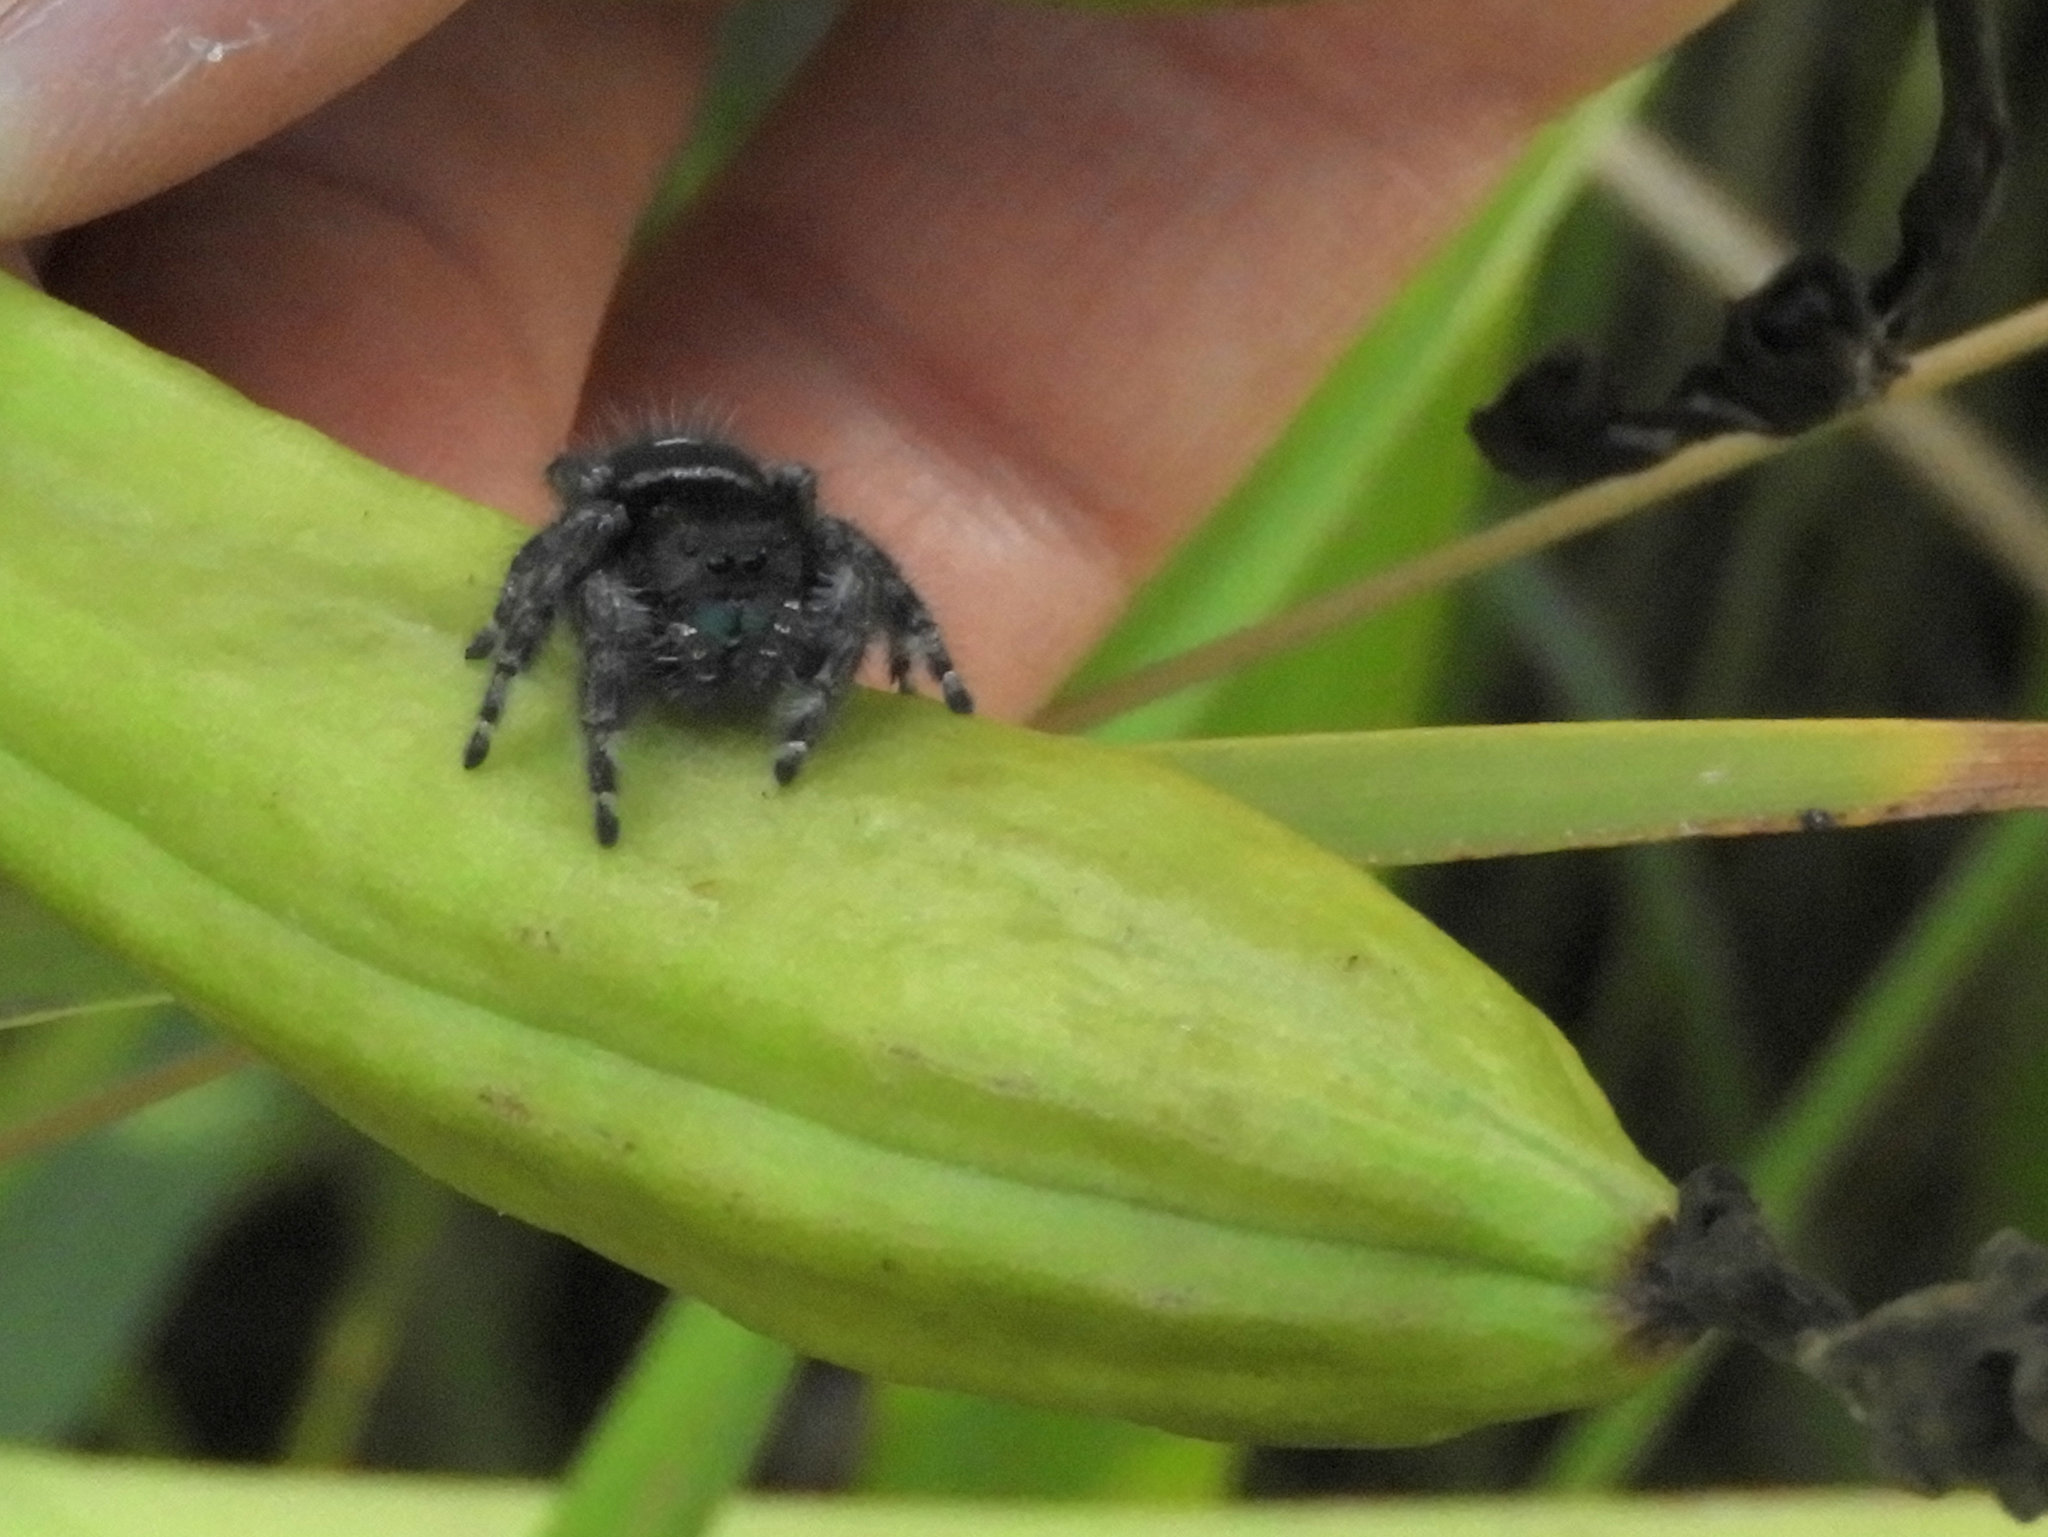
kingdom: Animalia
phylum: Arthropoda
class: Arachnida
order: Araneae
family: Salticidae
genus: Phidippus
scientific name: Phidippus audax
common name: Bold jumper
